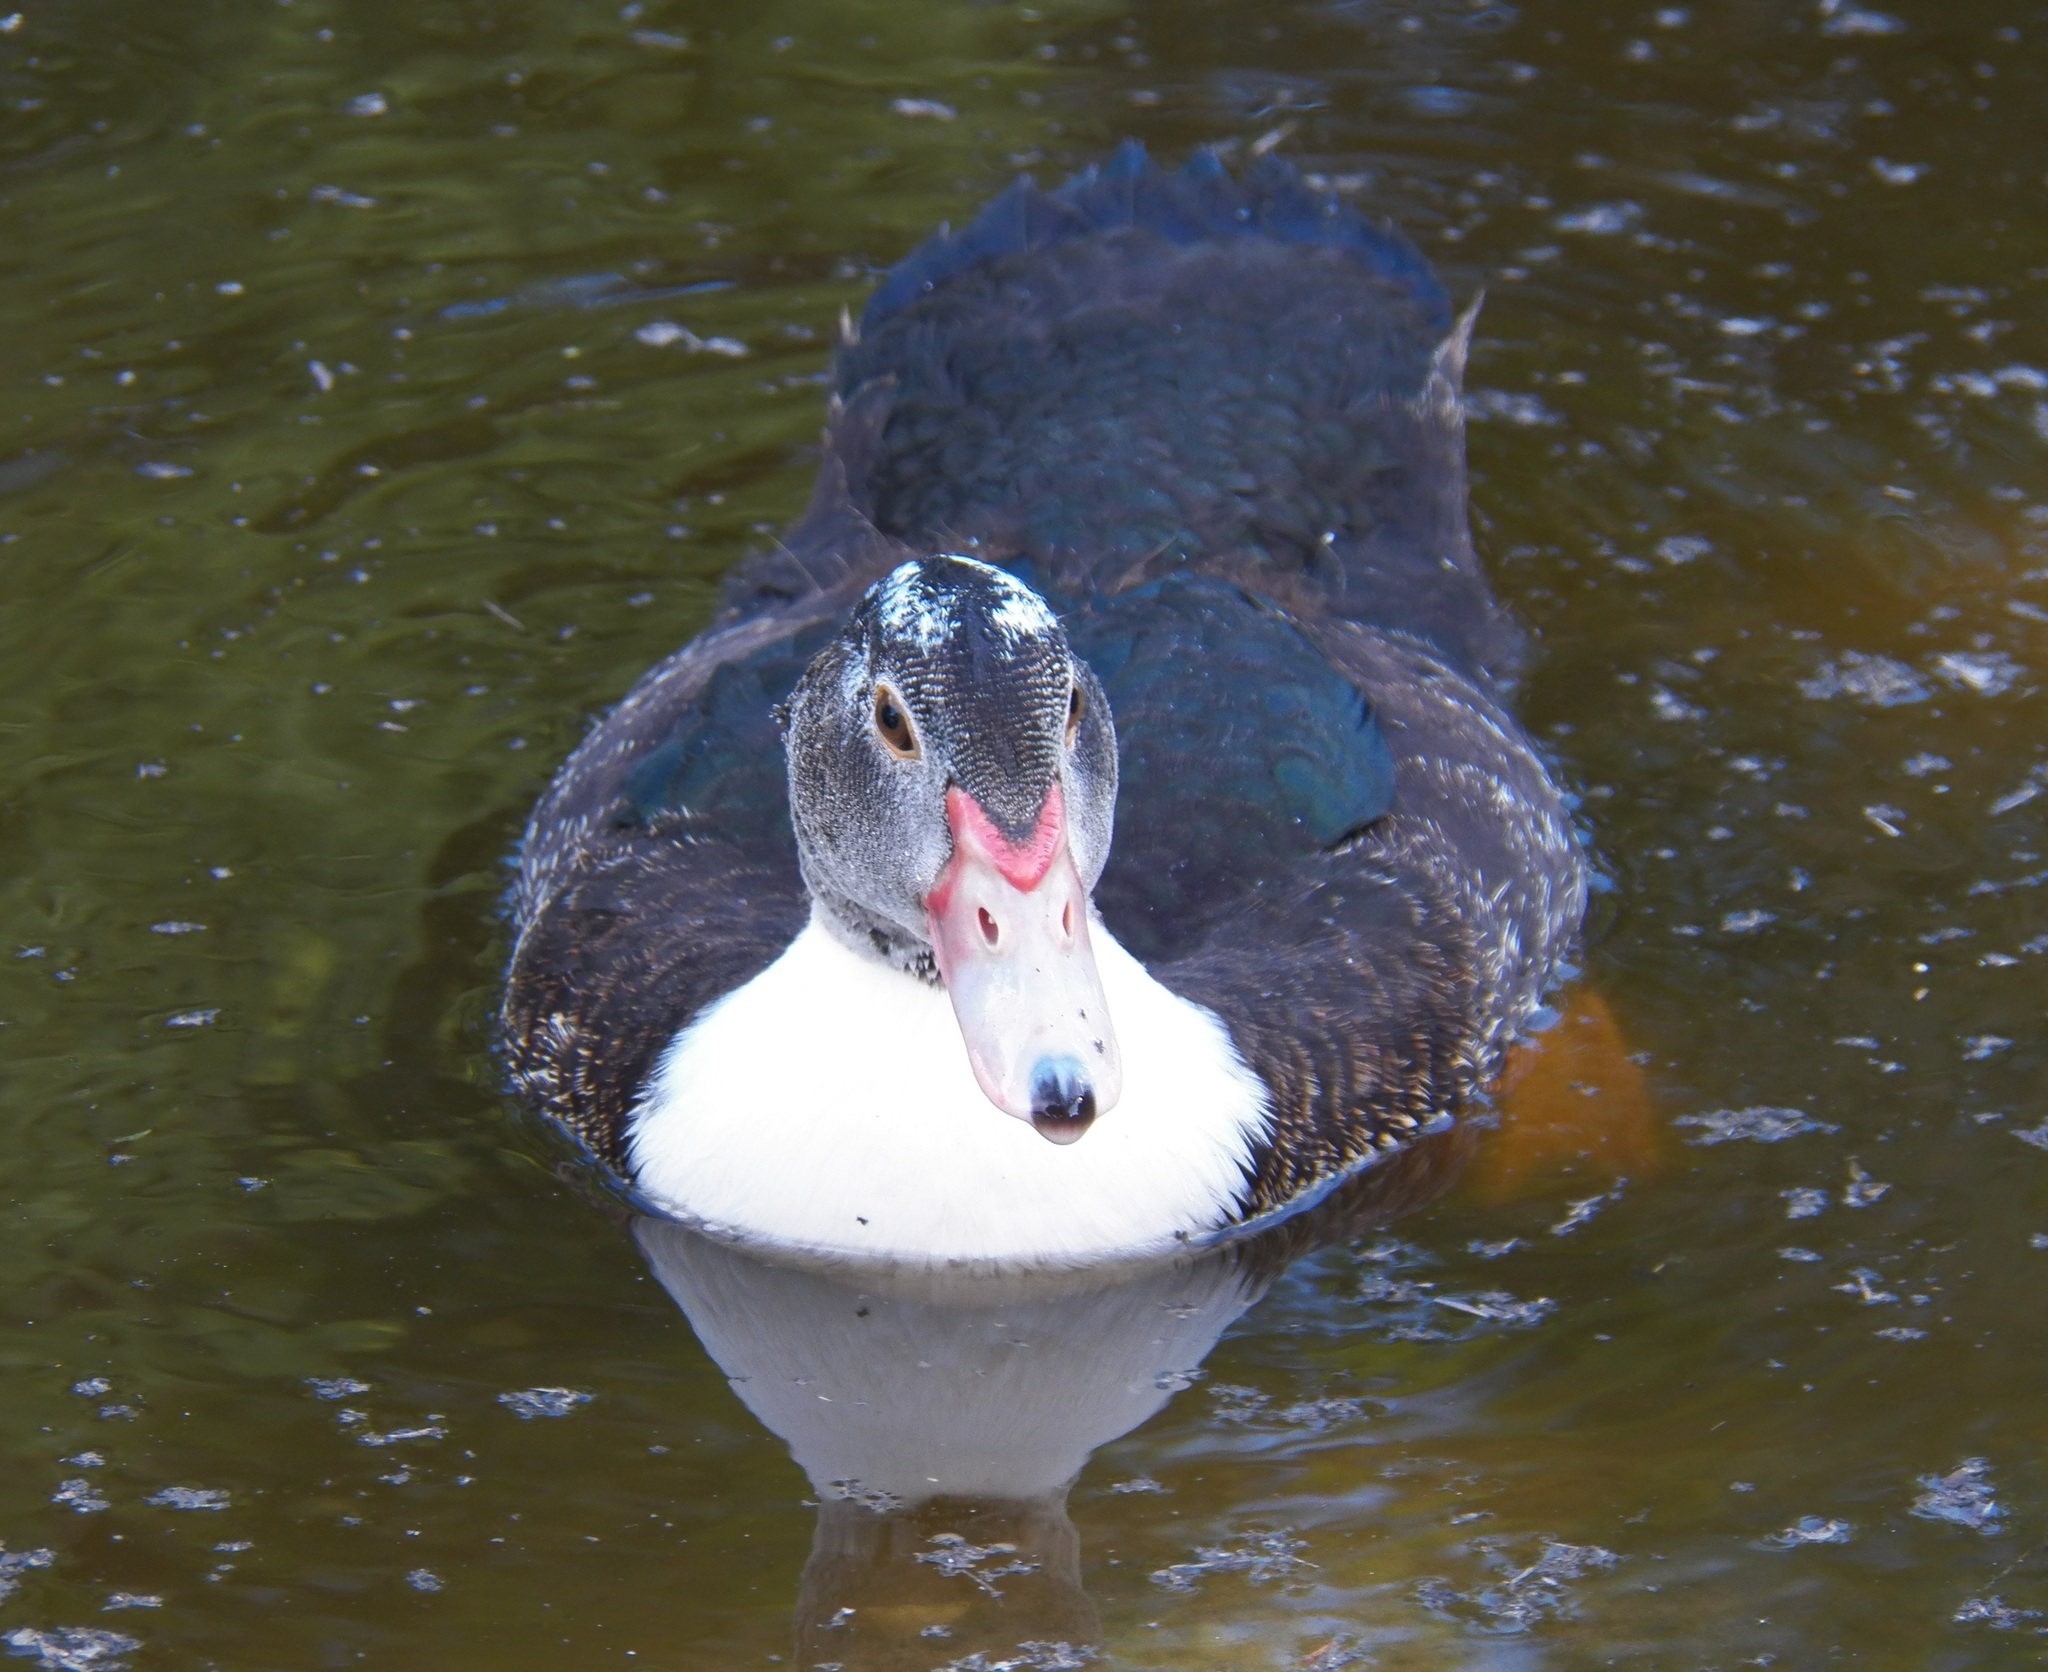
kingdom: Animalia
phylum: Chordata
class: Aves
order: Anseriformes
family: Anatidae
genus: Cairina
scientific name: Cairina moschata
